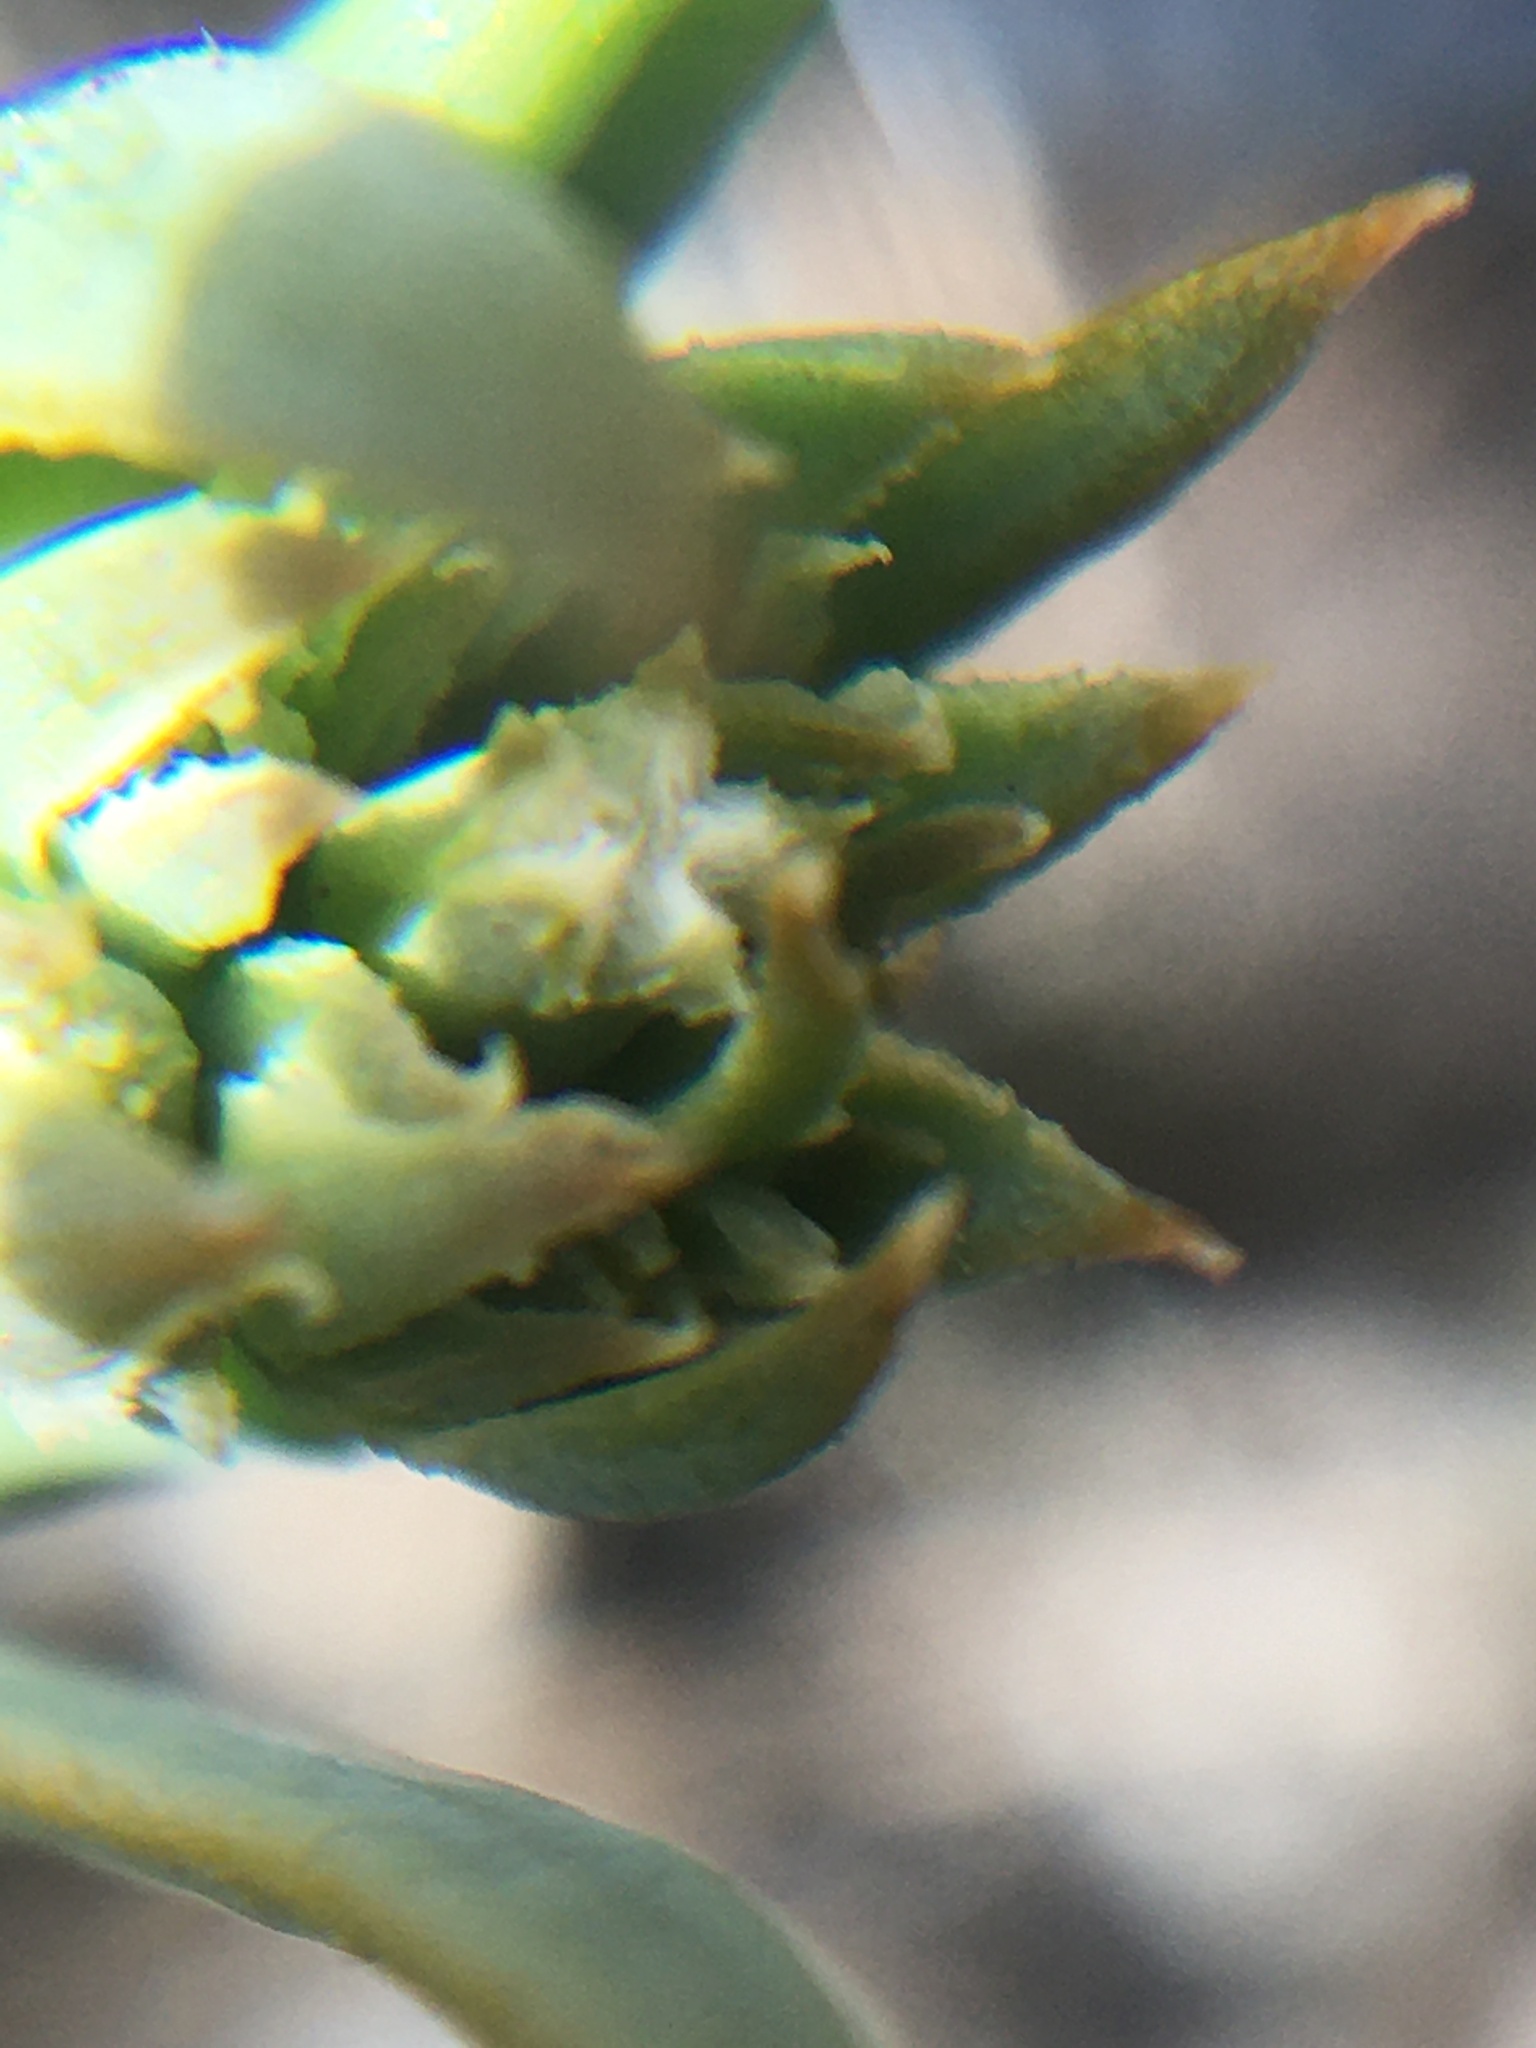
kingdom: Plantae
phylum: Tracheophyta
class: Magnoliopsida
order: Santalales
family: Thesiaceae
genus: Thesium
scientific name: Thesium ecklonianum
